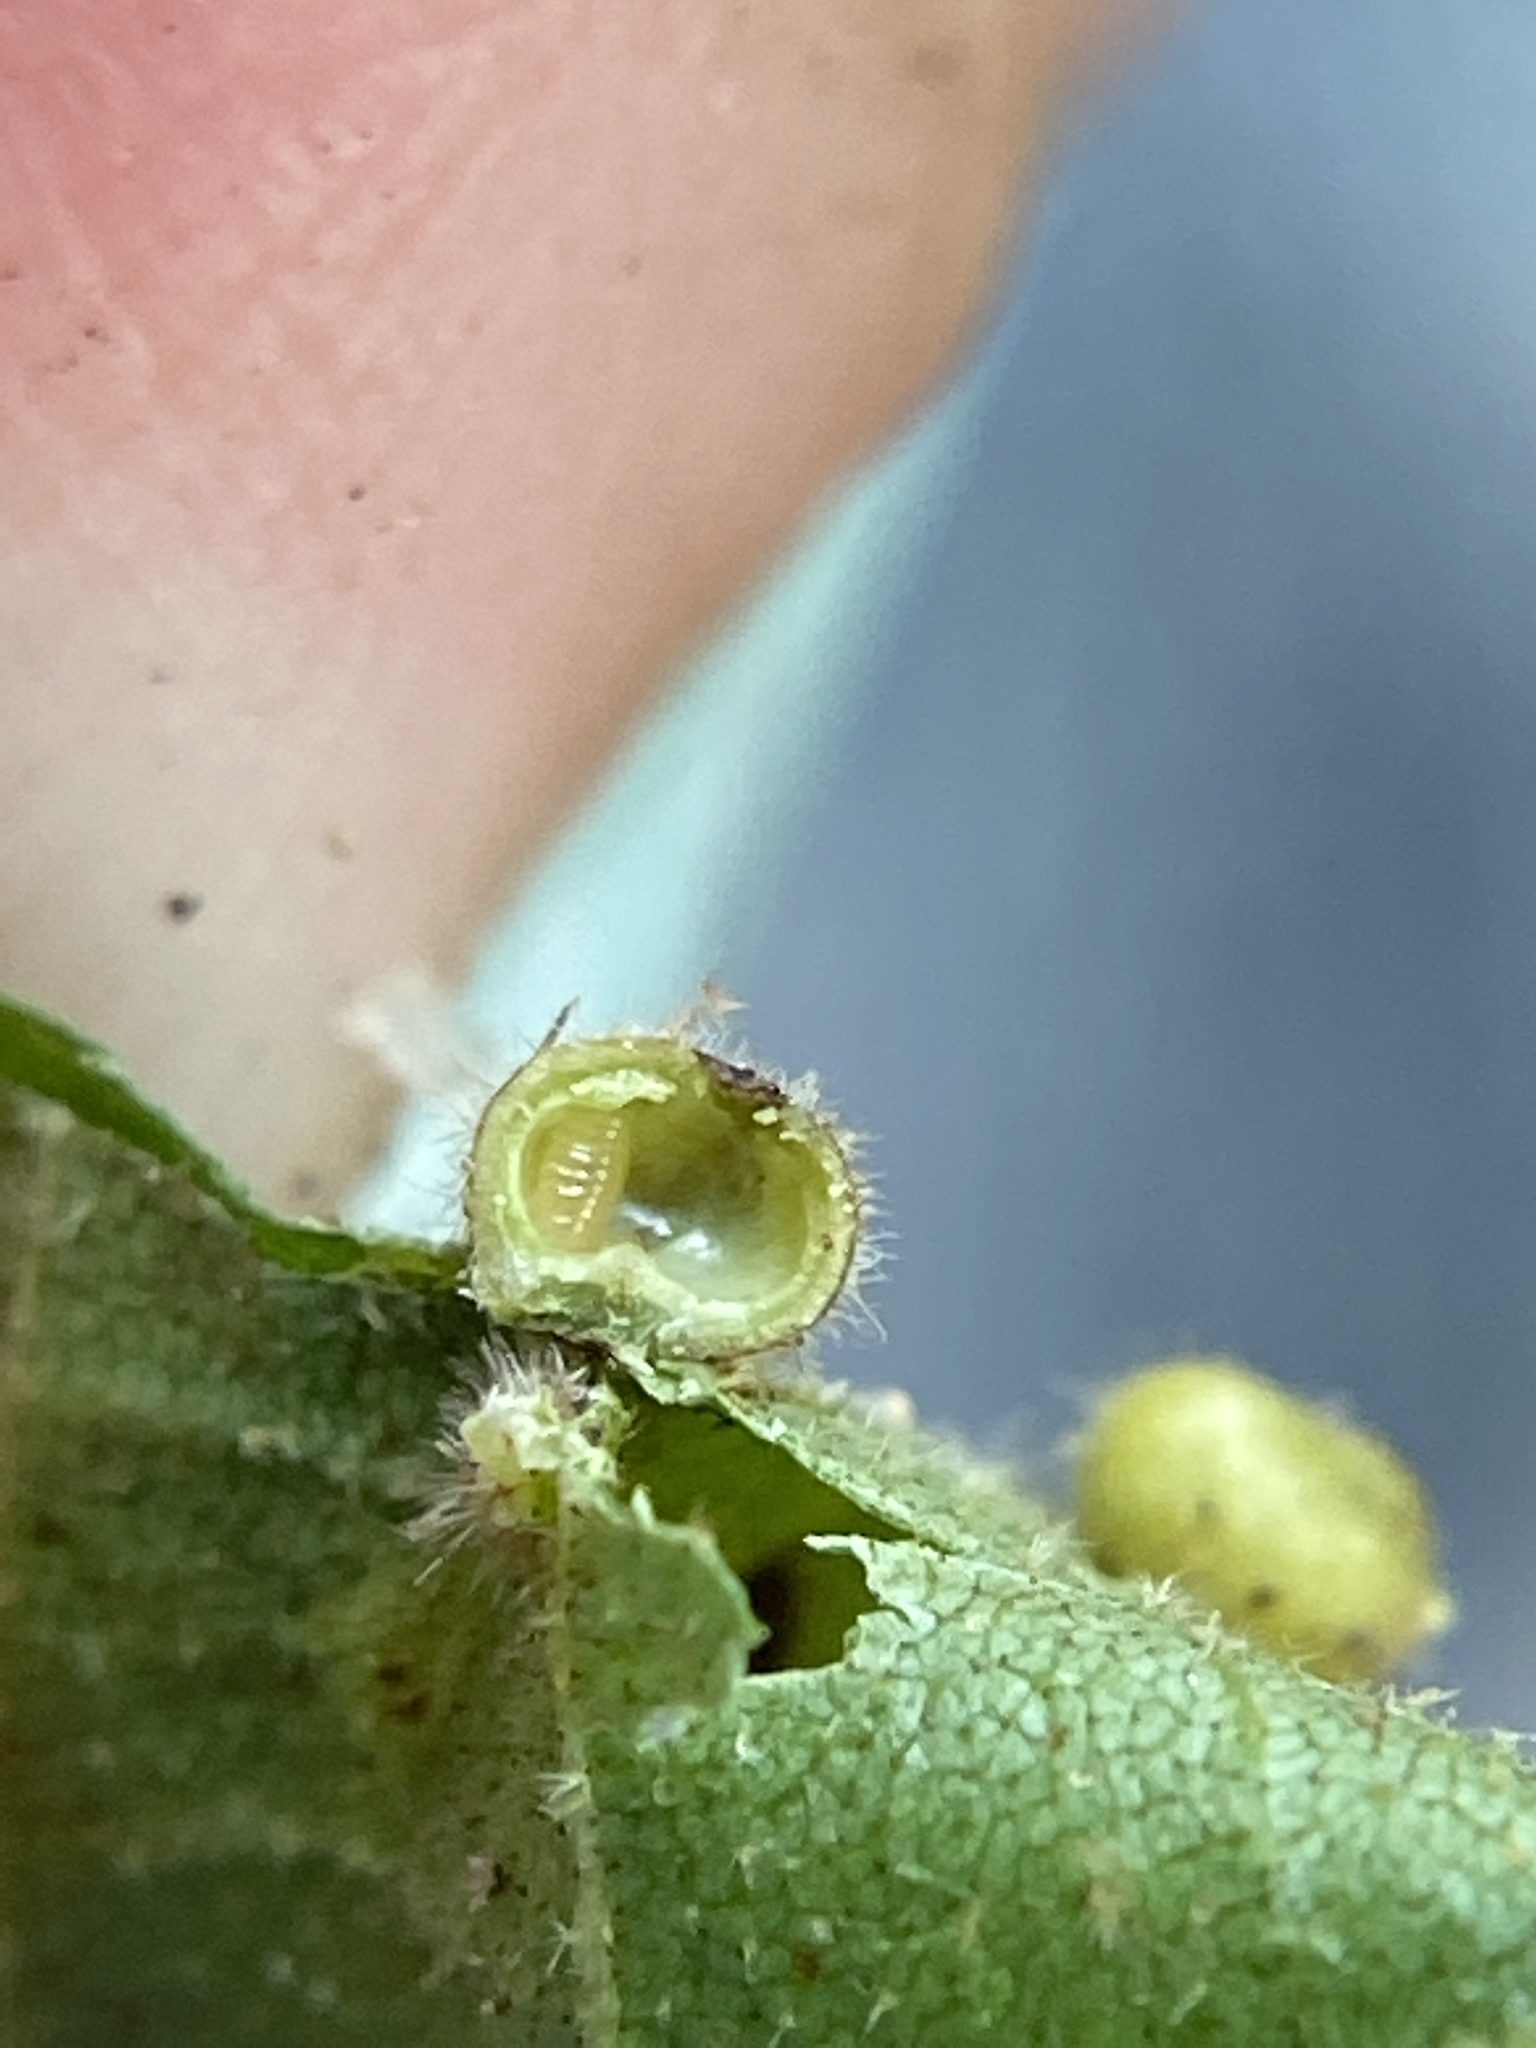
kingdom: Animalia
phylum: Arthropoda
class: Insecta
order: Diptera
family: Cecidomyiidae
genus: Caryomyia
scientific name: Caryomyia thompsoni
